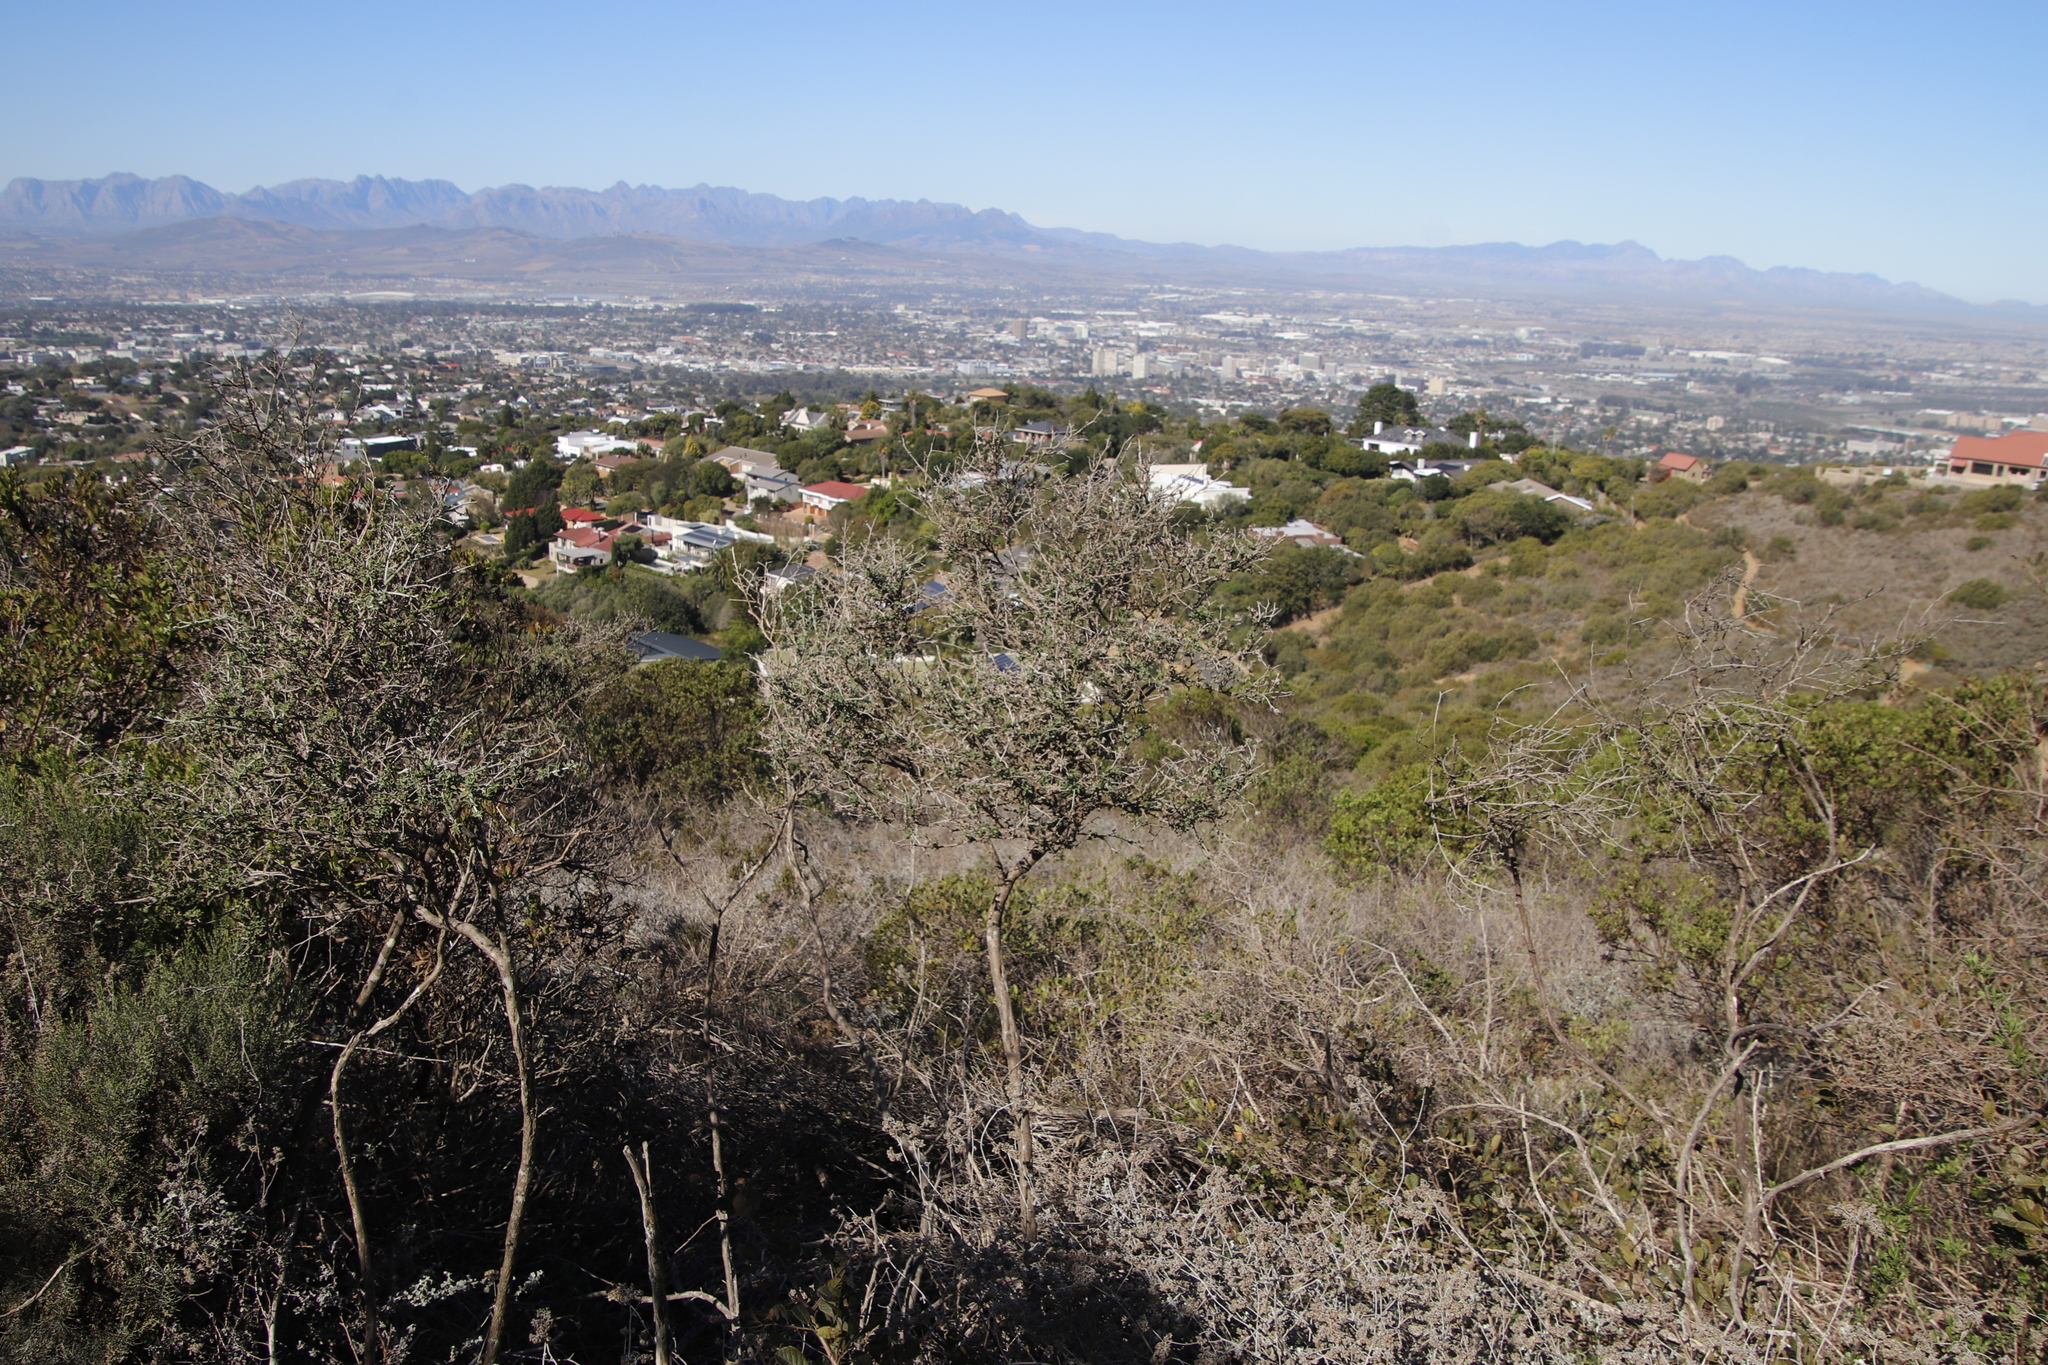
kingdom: Plantae
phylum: Tracheophyta
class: Magnoliopsida
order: Fabales
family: Fabaceae
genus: Psoralea
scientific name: Psoralea hirta
